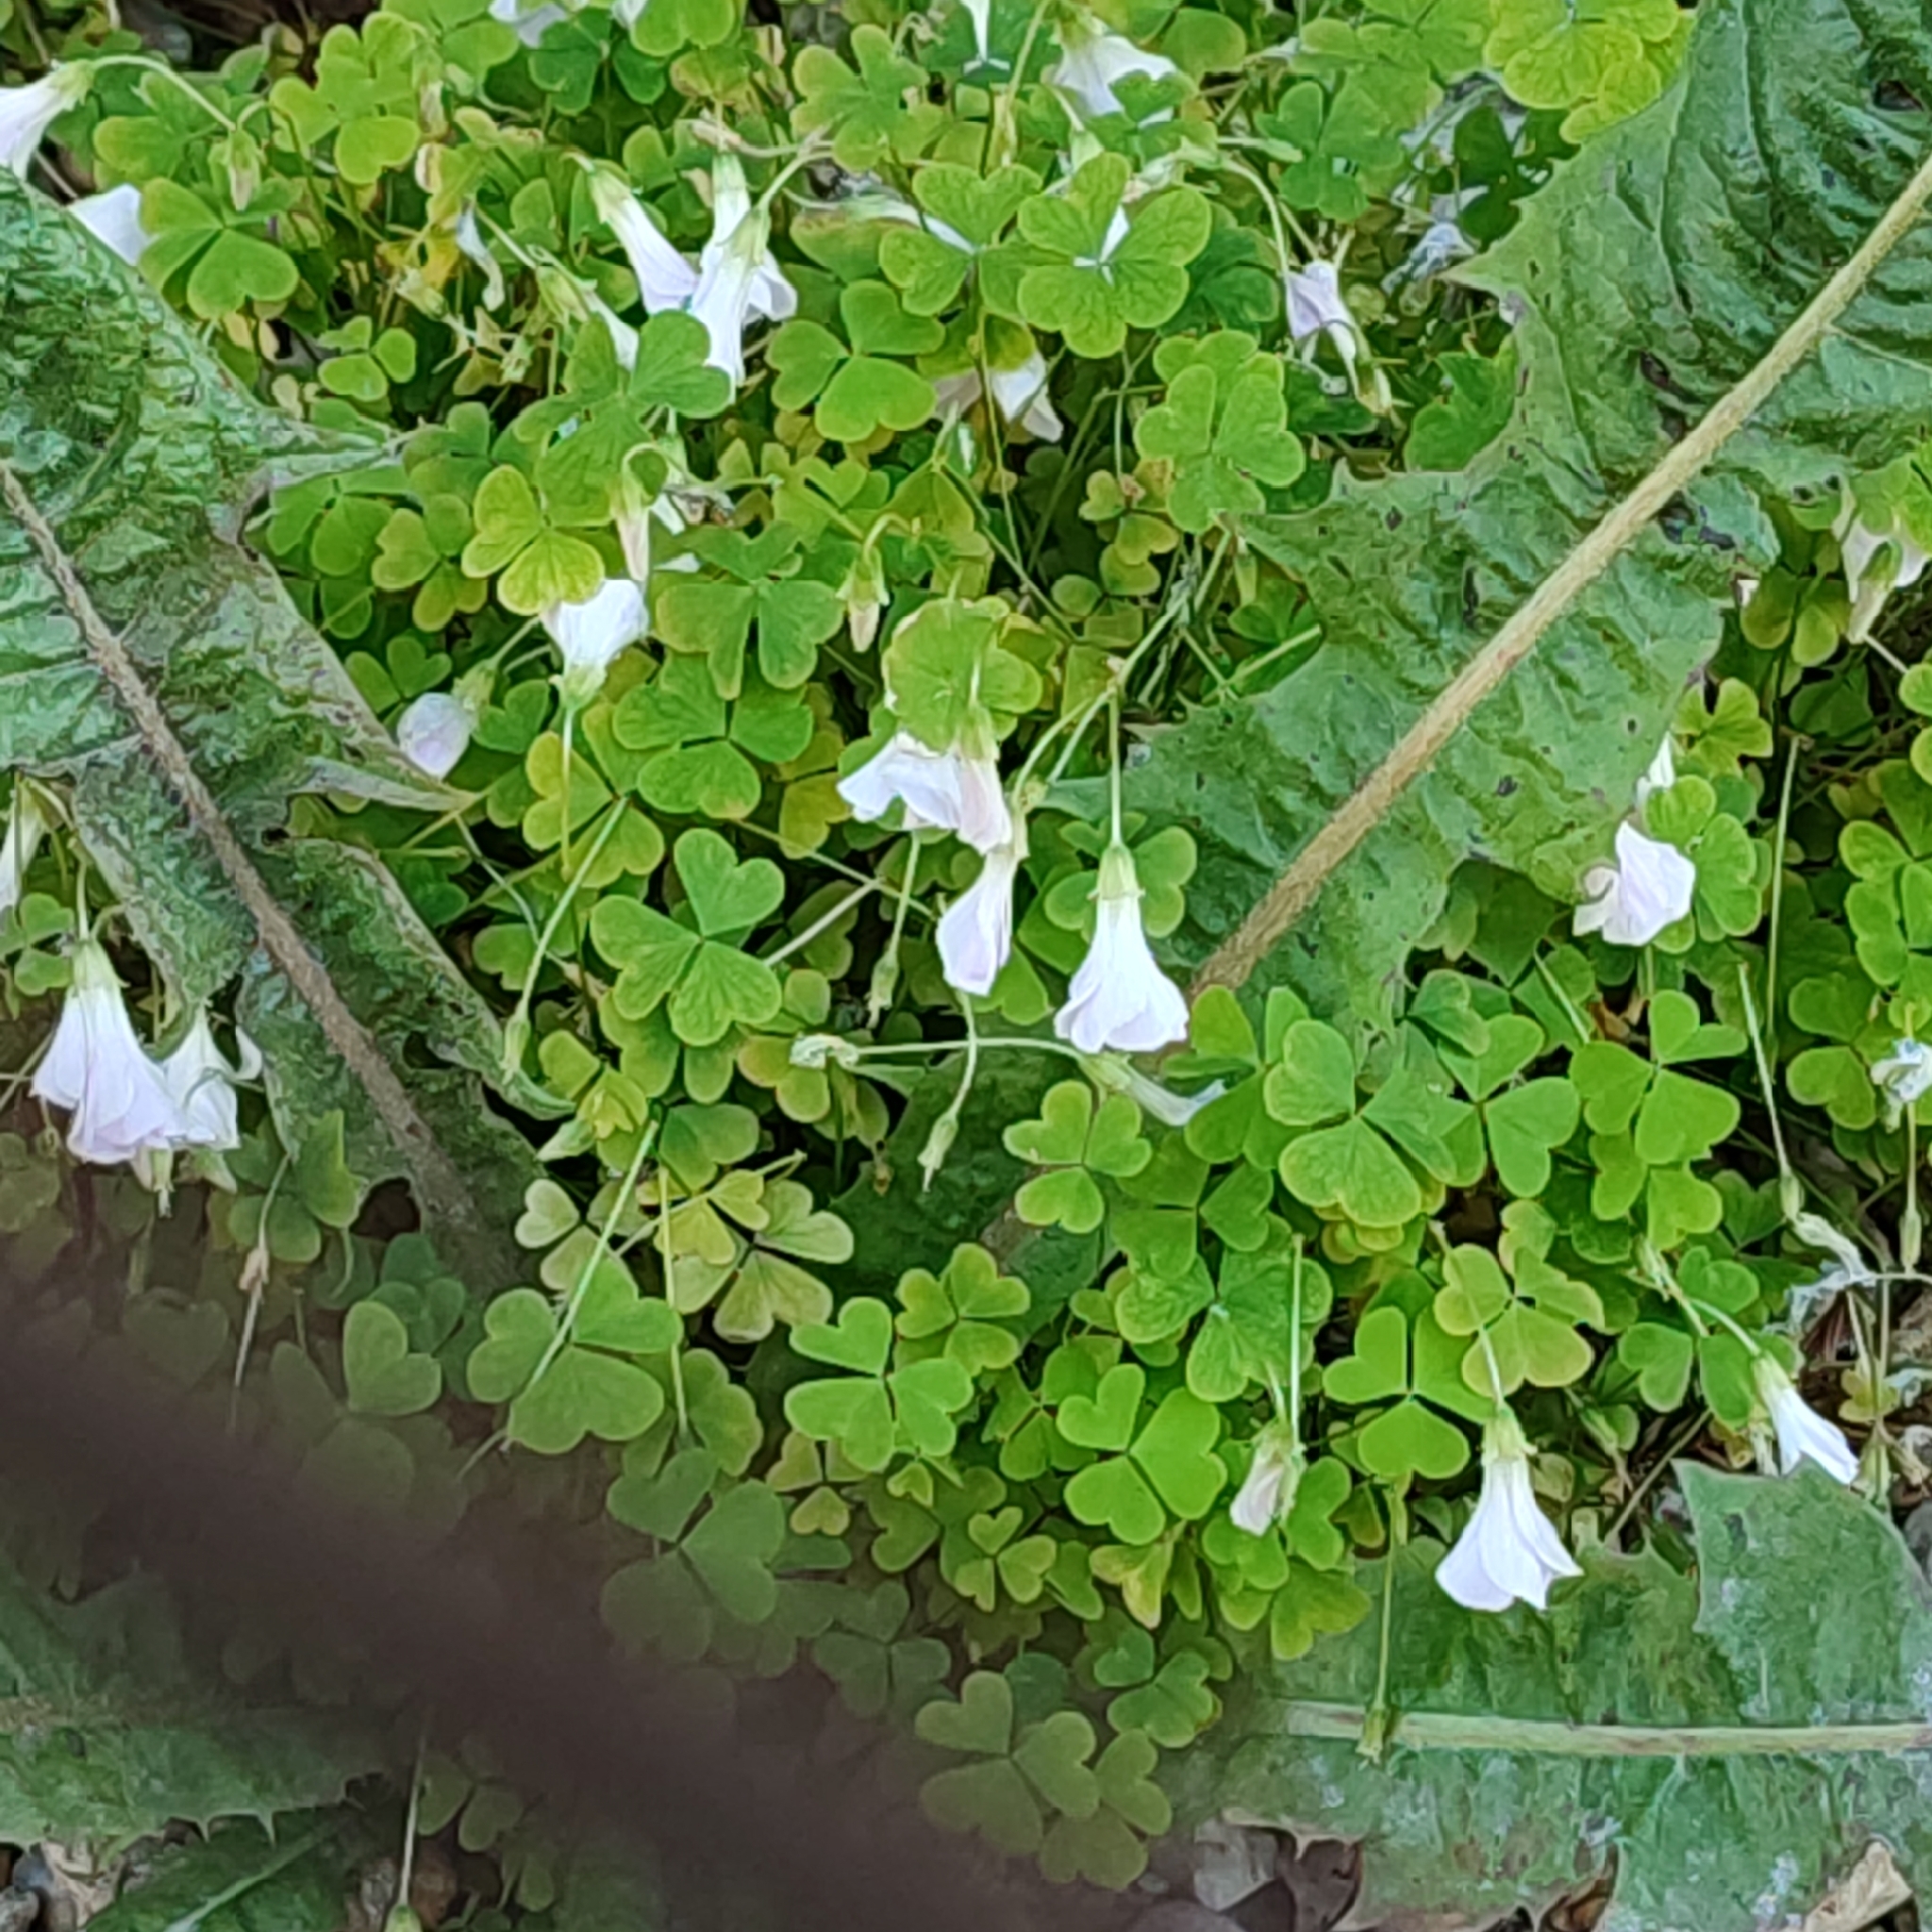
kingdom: Plantae
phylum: Tracheophyta
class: Magnoliopsida
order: Oxalidales
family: Oxalidaceae
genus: Oxalis
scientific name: Oxalis incarnata
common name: Pale pink-sorrel
